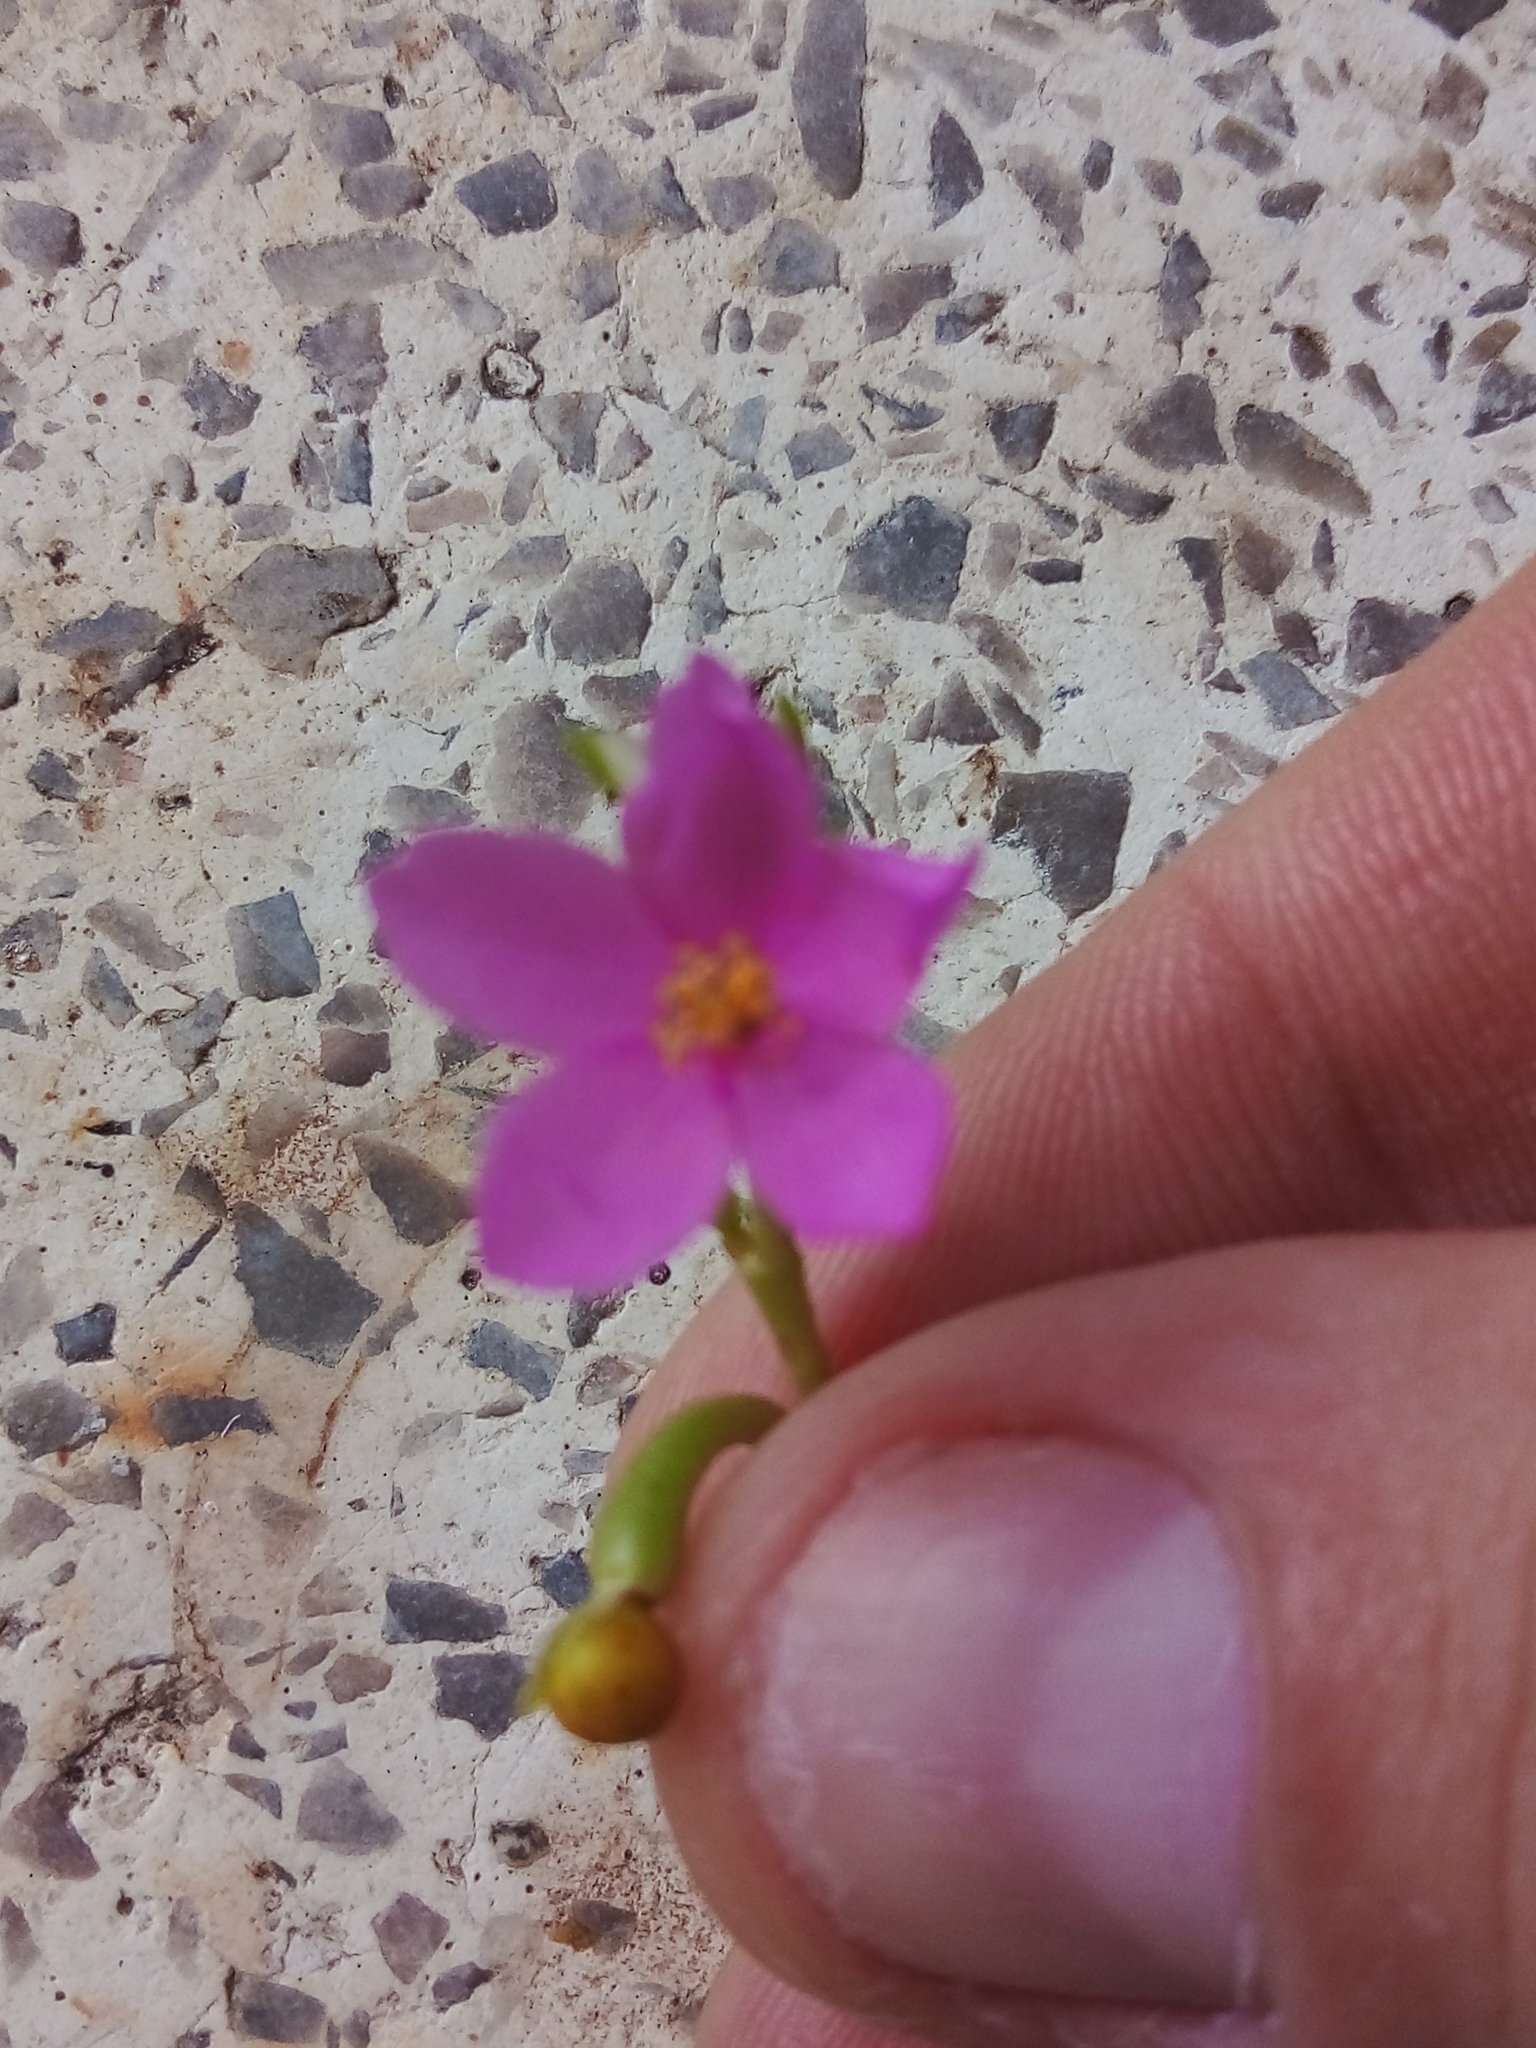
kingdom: Plantae
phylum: Tracheophyta
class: Magnoliopsida
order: Caryophyllales
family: Talinaceae
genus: Talinum
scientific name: Talinum fruticosum
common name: Verdolaga-francesa
